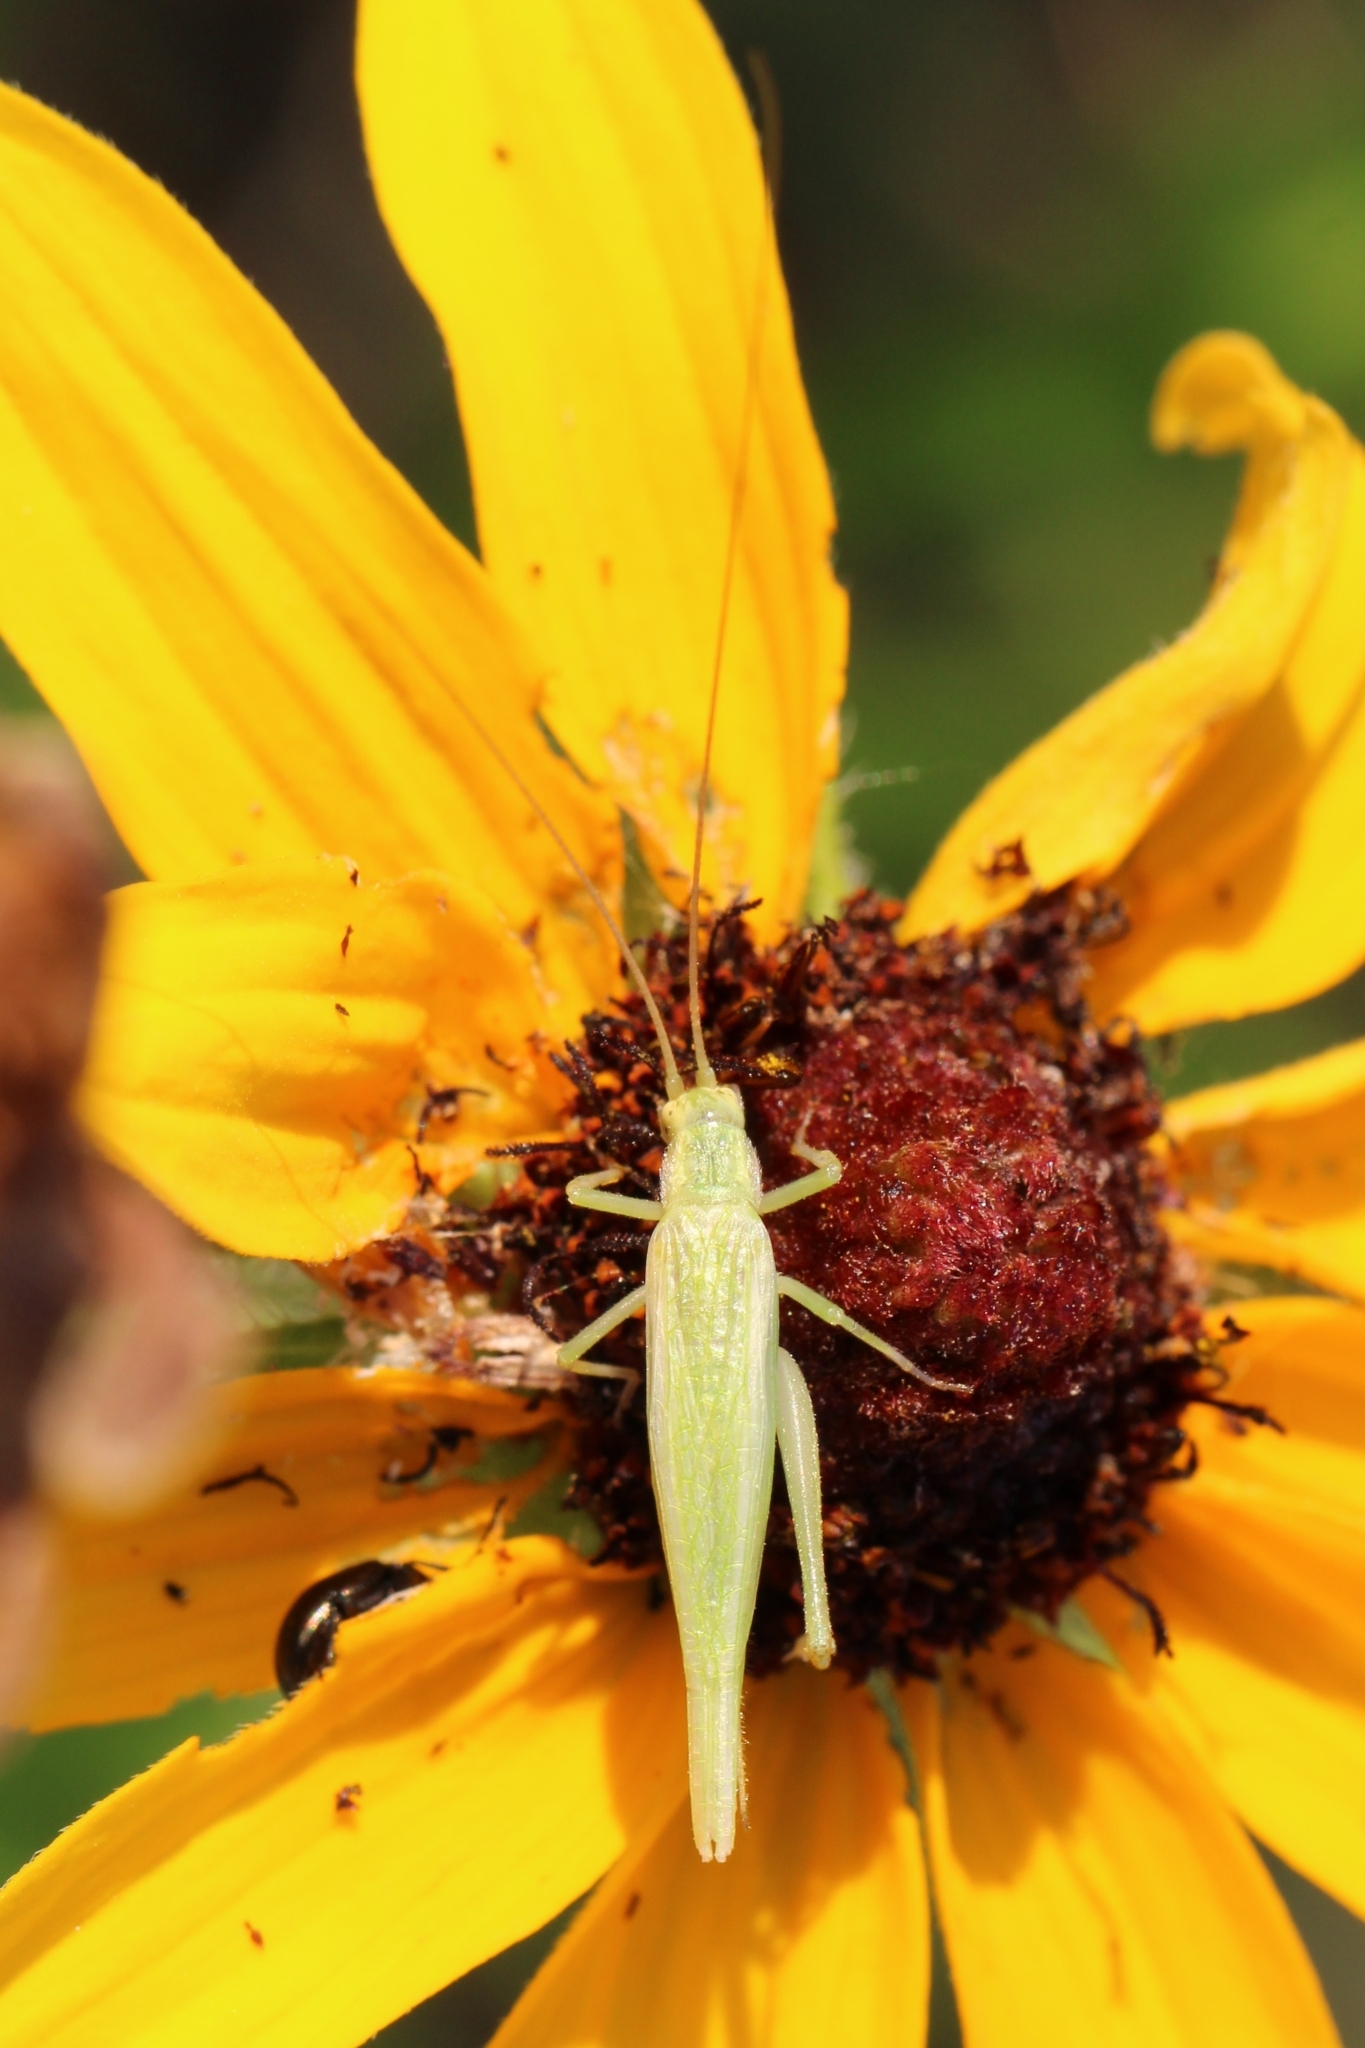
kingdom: Animalia
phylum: Arthropoda
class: Insecta
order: Orthoptera
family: Gryllidae
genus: Oecanthus
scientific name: Oecanthus
